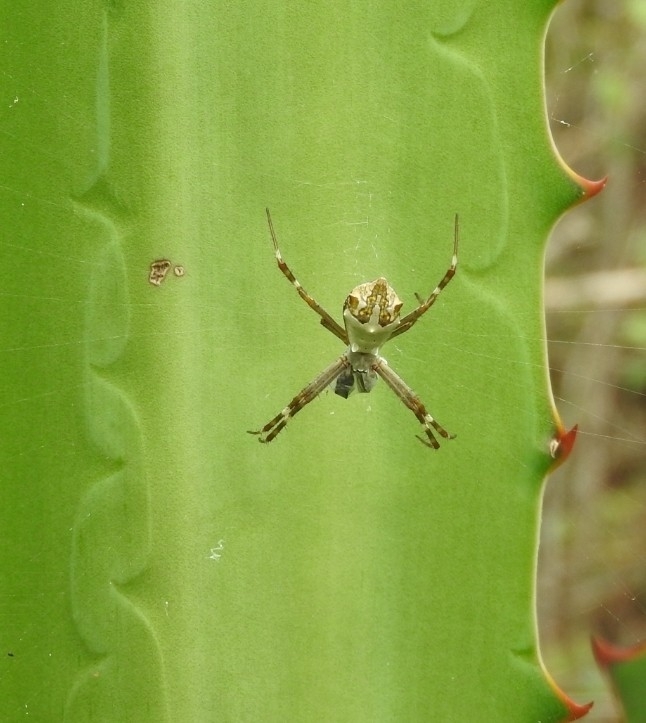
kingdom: Animalia
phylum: Arthropoda
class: Arachnida
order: Araneae
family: Araneidae
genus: Argiope
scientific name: Argiope argentata
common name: Orb weavers
